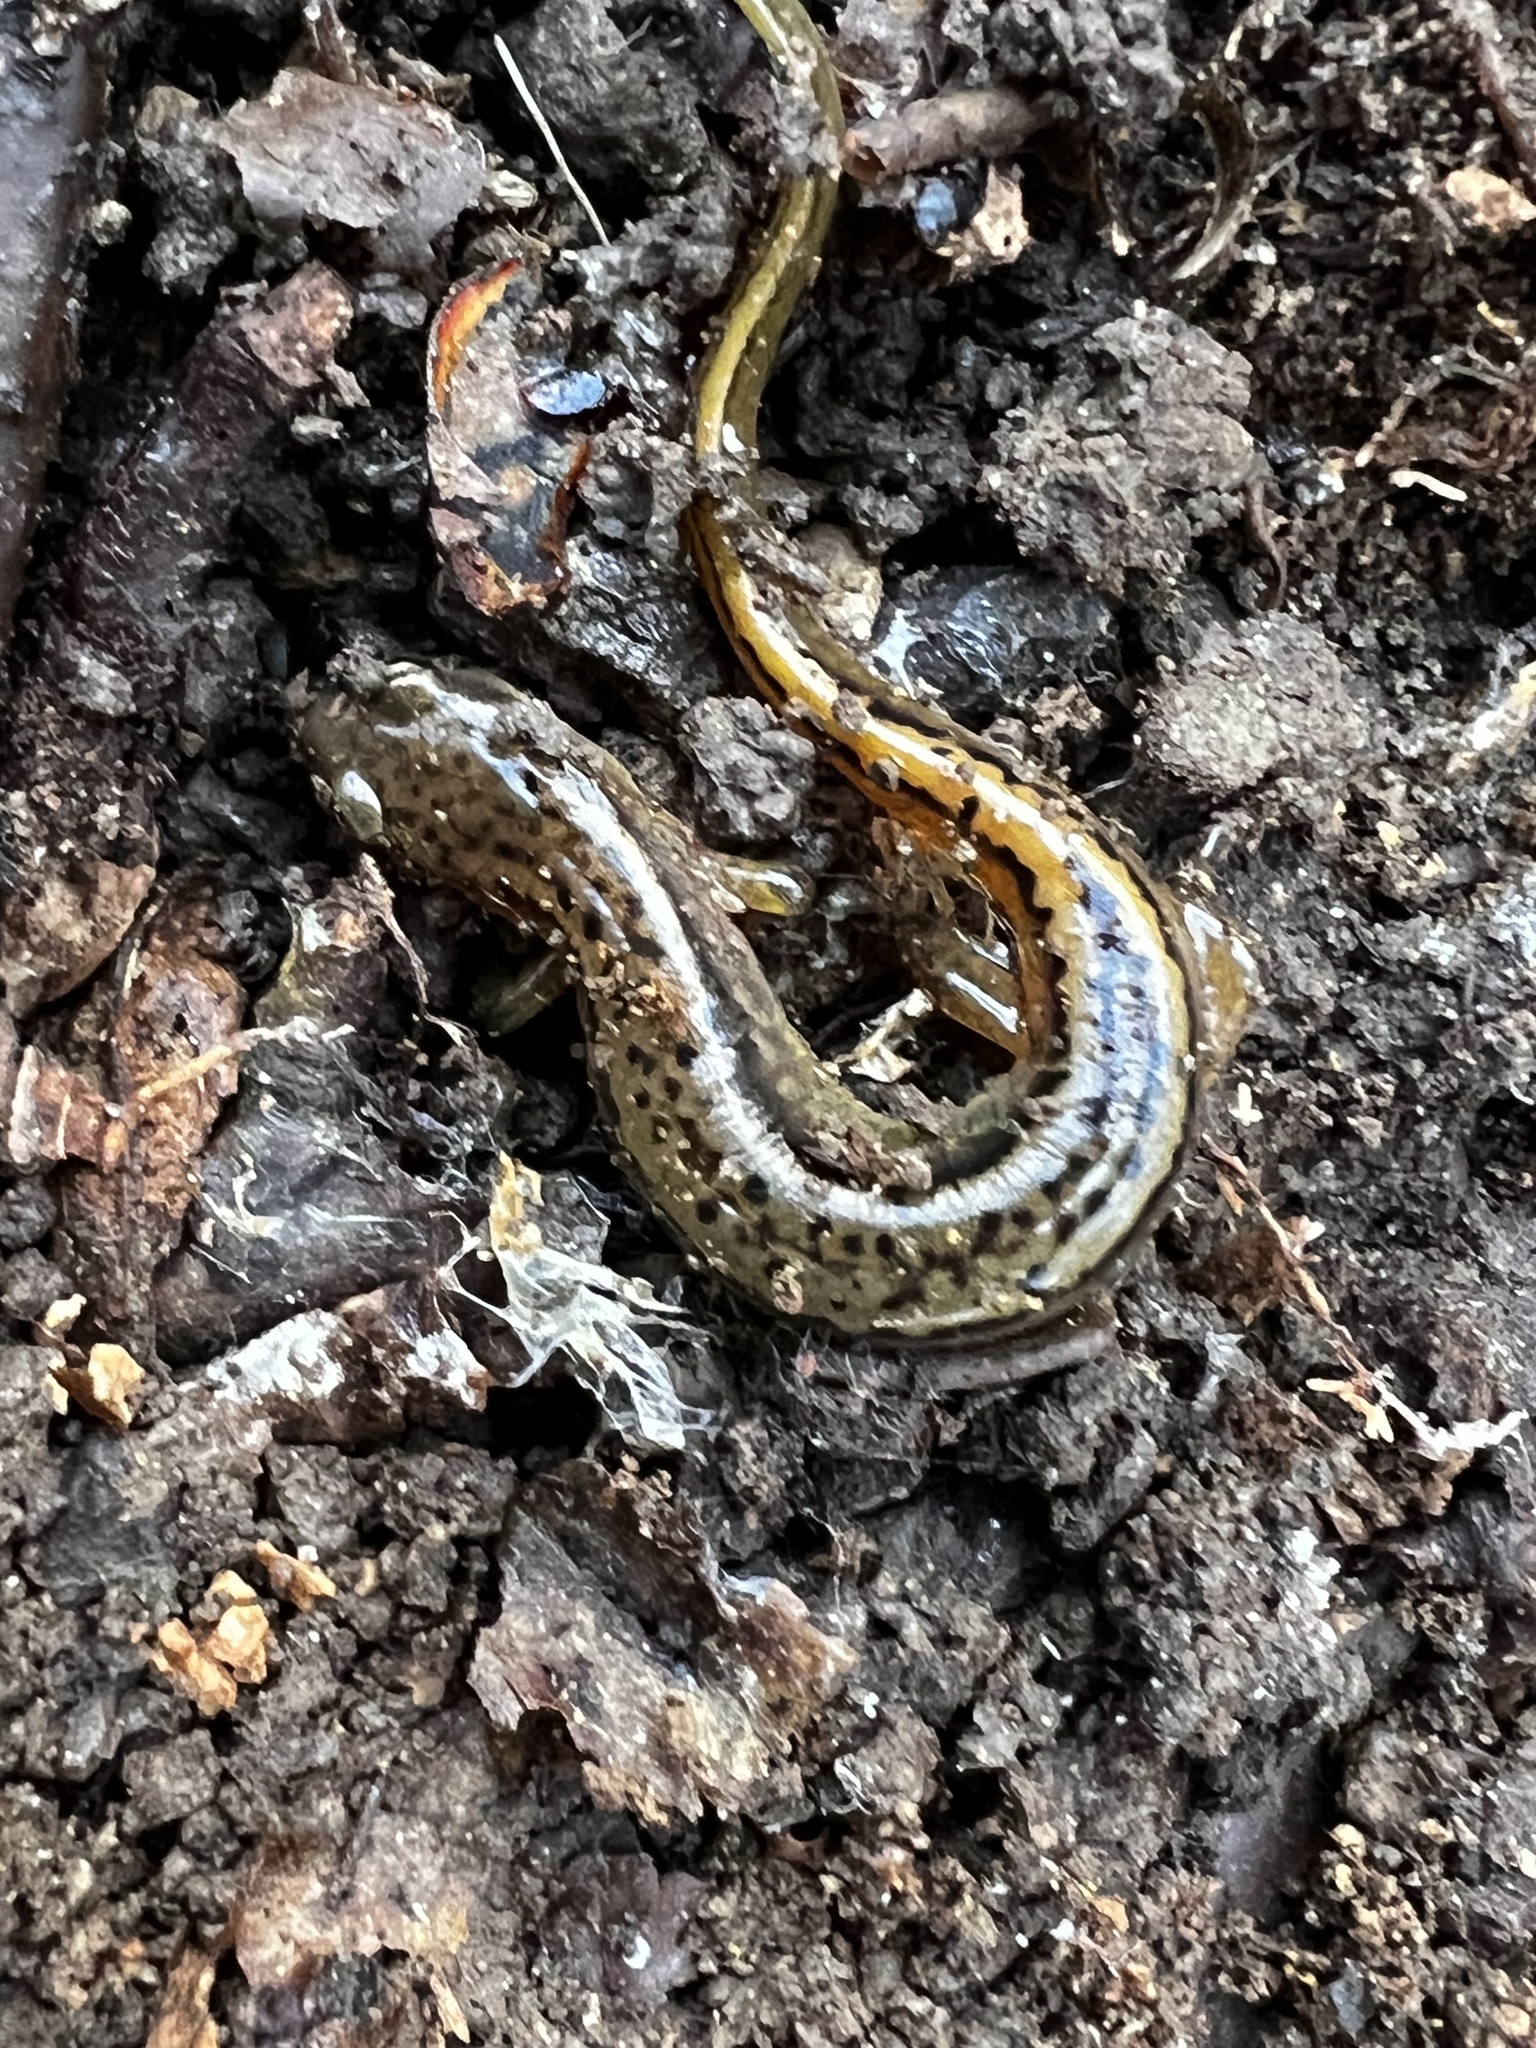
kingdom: Animalia
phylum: Chordata
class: Amphibia
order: Caudata
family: Plethodontidae
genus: Eurycea
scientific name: Eurycea bislineata
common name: Northern two-lined salamander
